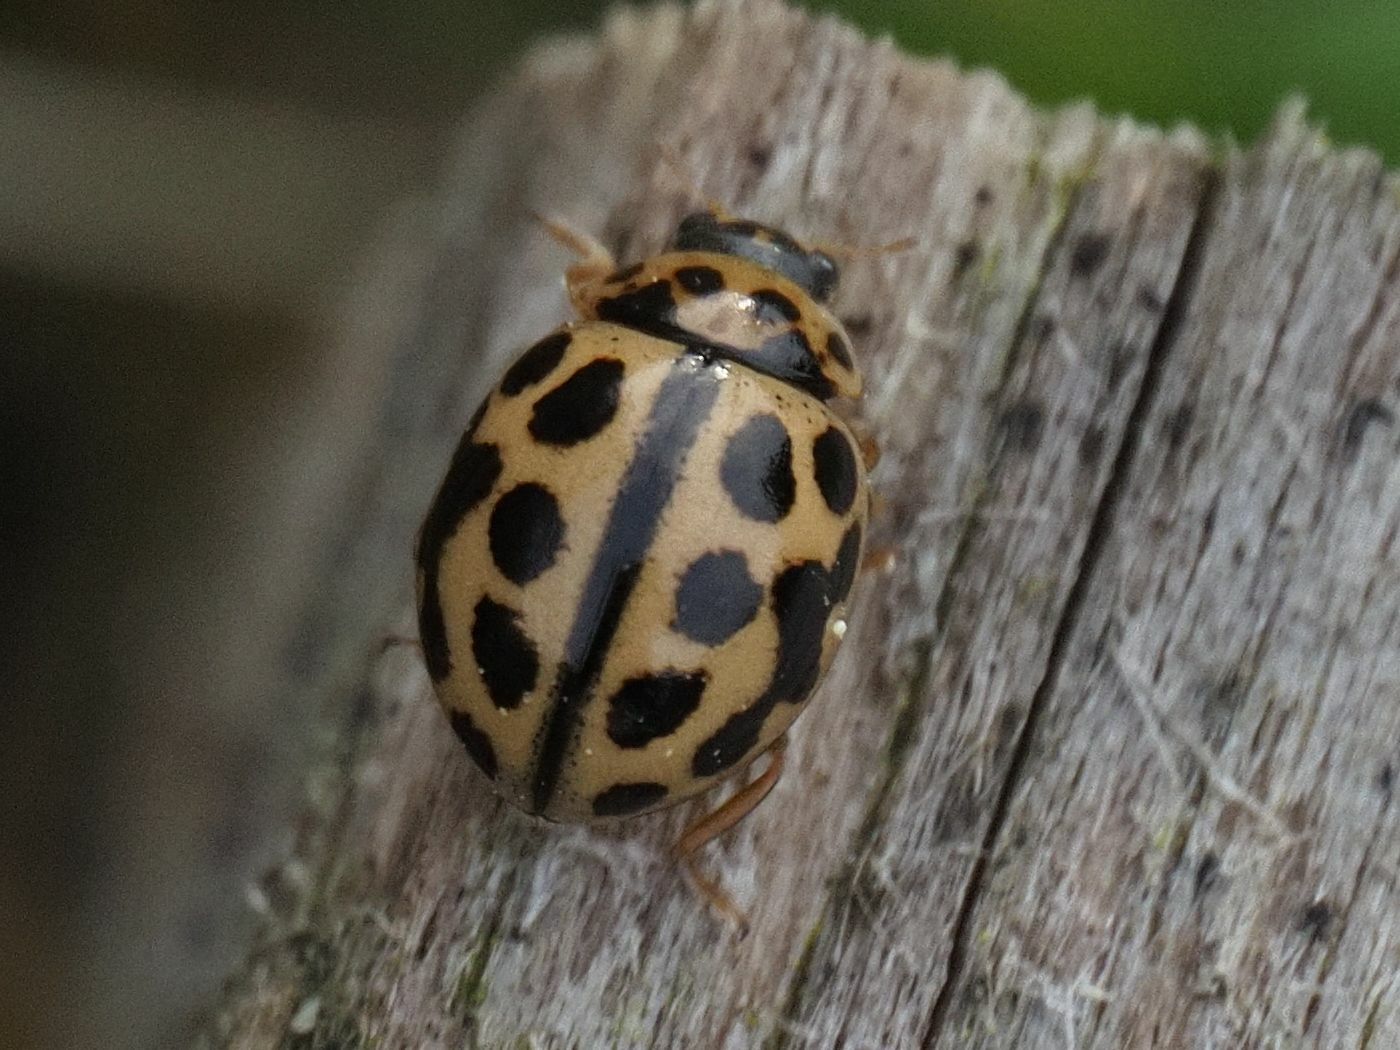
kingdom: Animalia
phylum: Arthropoda
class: Insecta
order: Coleoptera
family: Coccinellidae
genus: Tytthaspis
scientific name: Tytthaspis sedecimpunctata
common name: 16-spot ladybird
